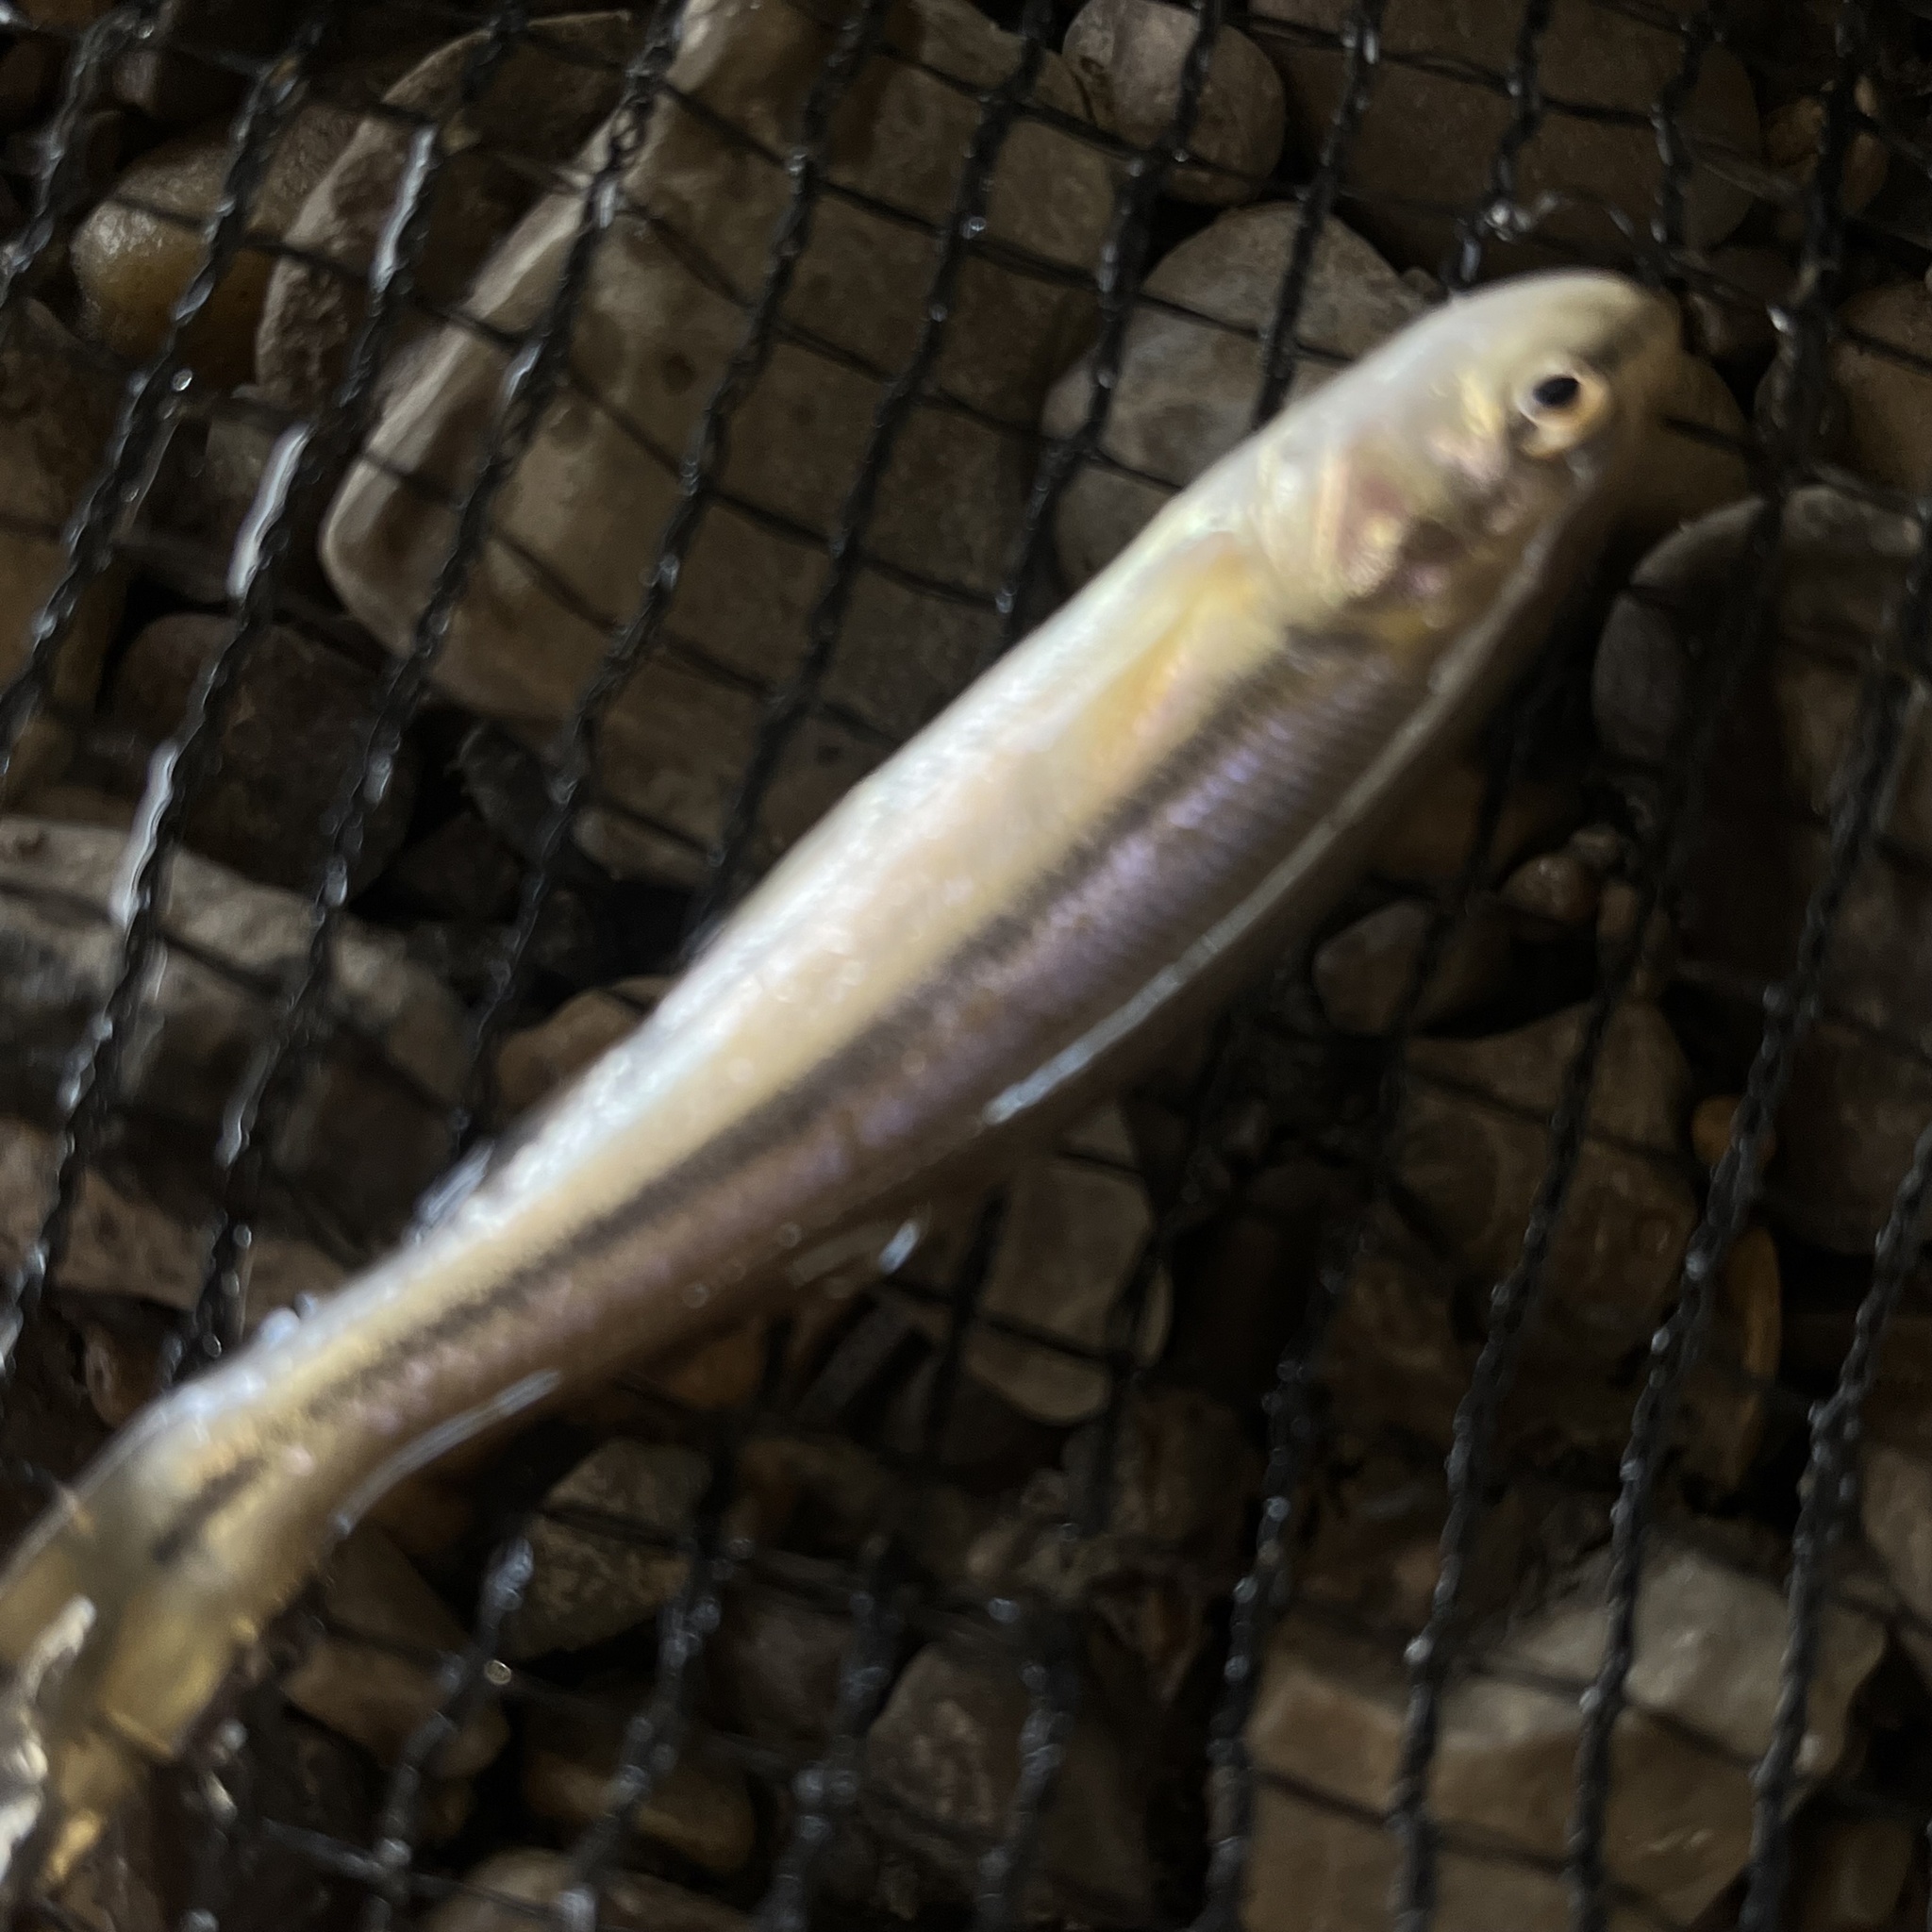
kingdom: Animalia
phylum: Chordata
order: Cypriniformes
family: Cyprinidae
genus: Semotilus
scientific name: Semotilus atromaculatus
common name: Creek chub
